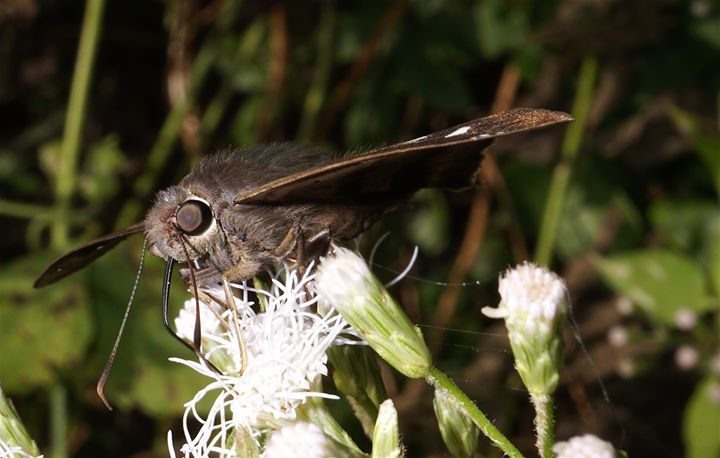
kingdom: Animalia
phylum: Arthropoda
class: Insecta
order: Lepidoptera
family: Hesperiidae
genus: Polygonus
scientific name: Polygonus leo
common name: Hammoch skipper
